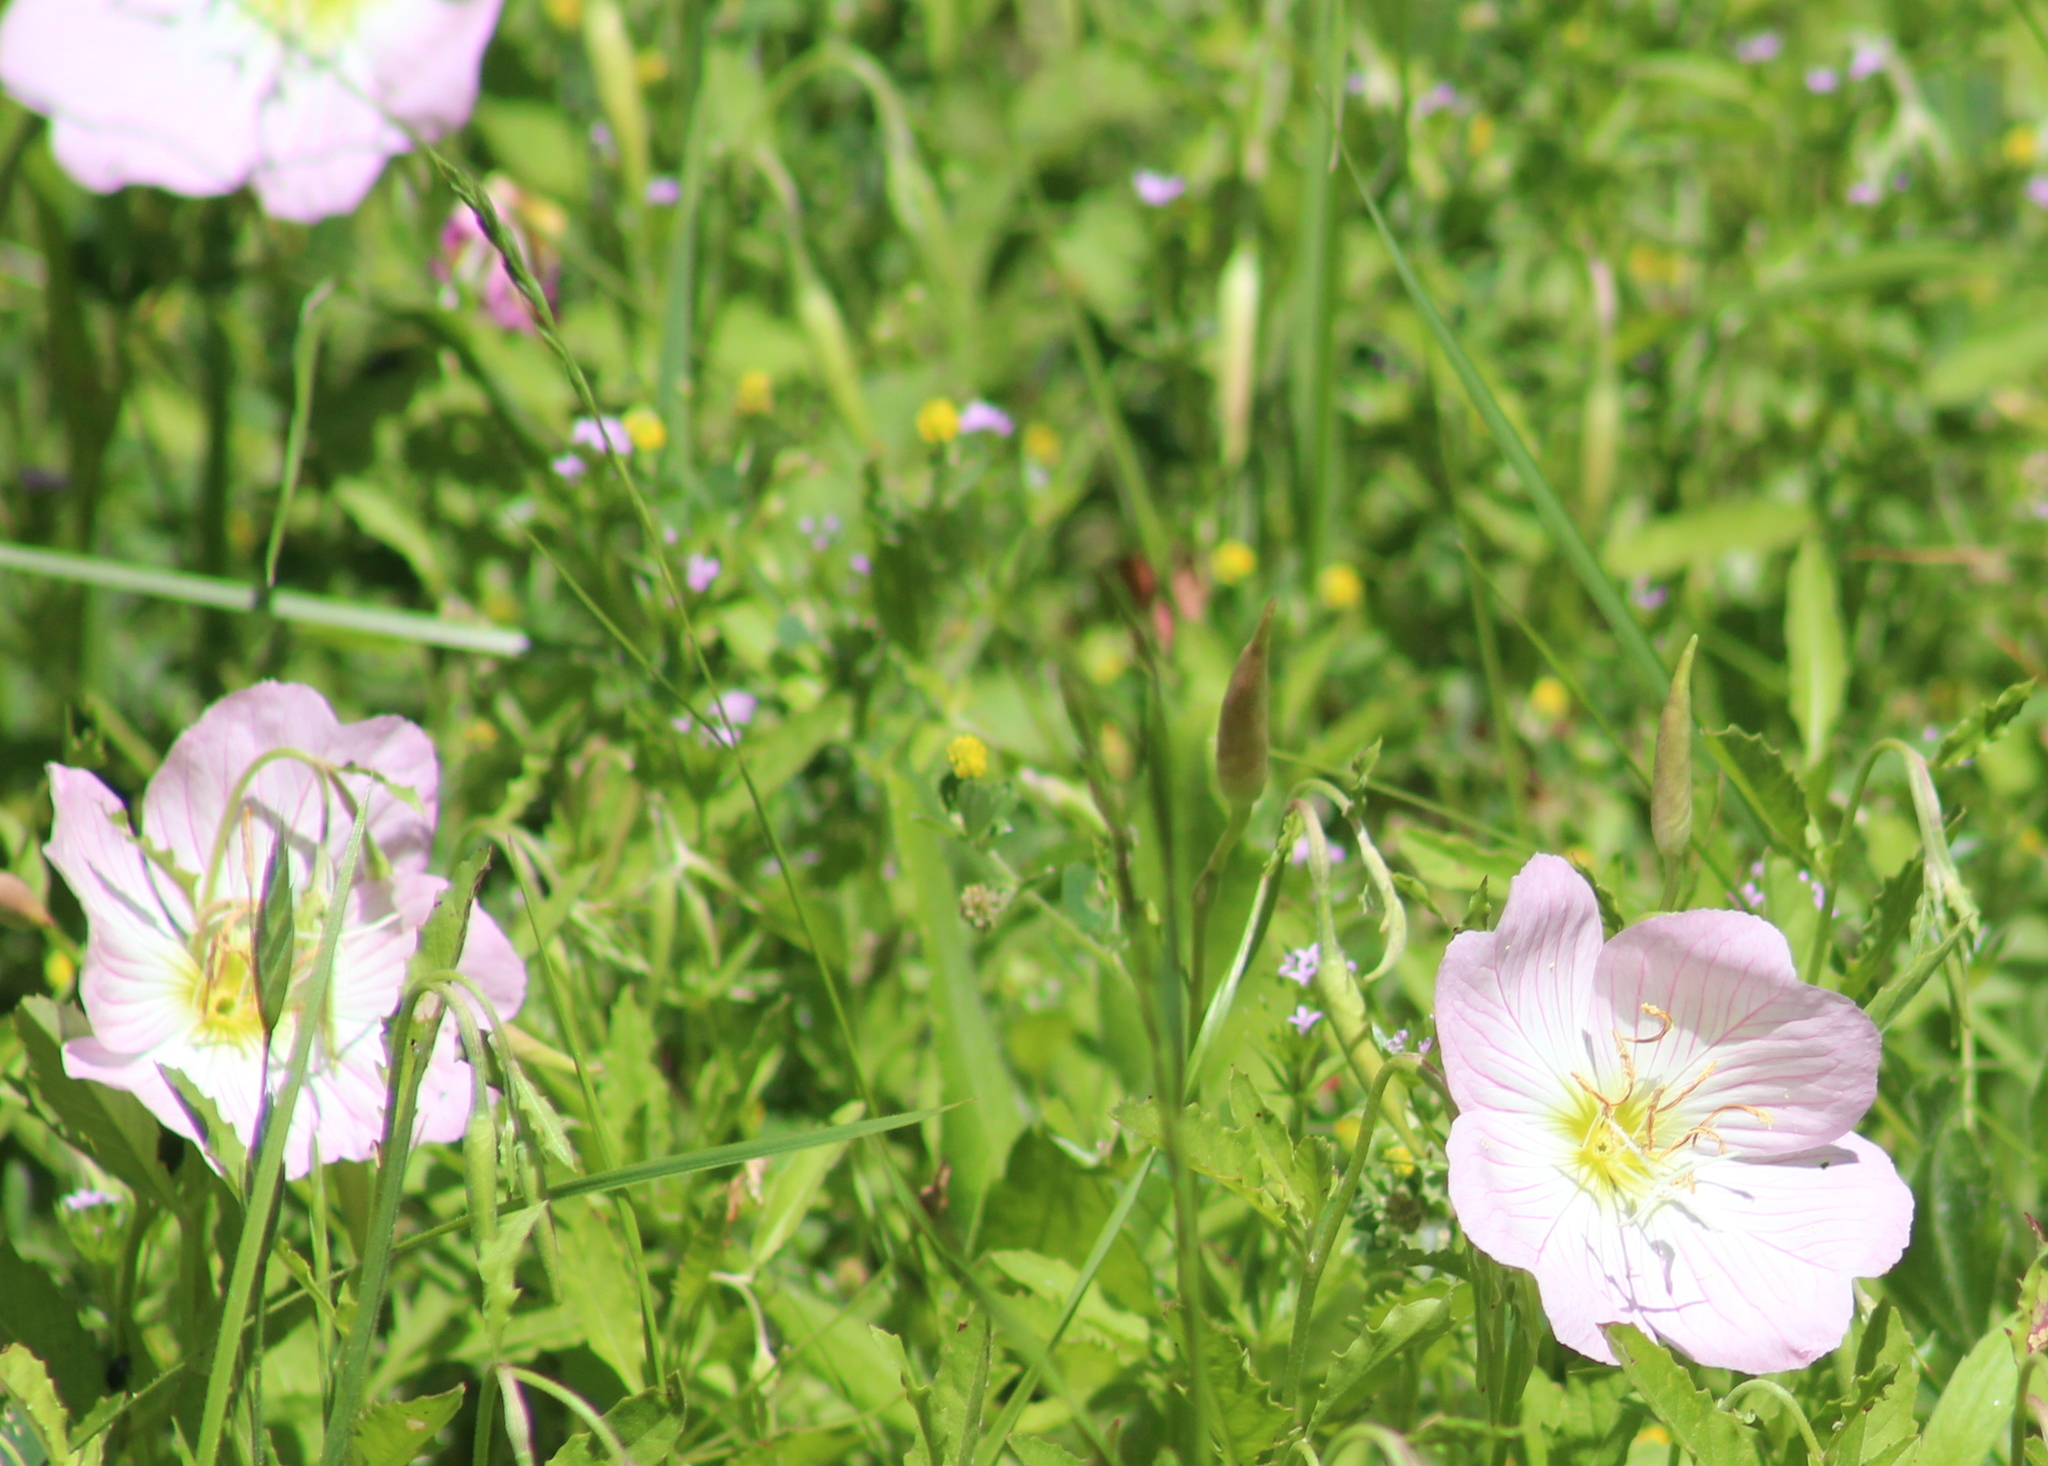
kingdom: Plantae
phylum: Tracheophyta
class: Magnoliopsida
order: Myrtales
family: Onagraceae
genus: Oenothera
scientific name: Oenothera speciosa
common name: White evening-primrose
